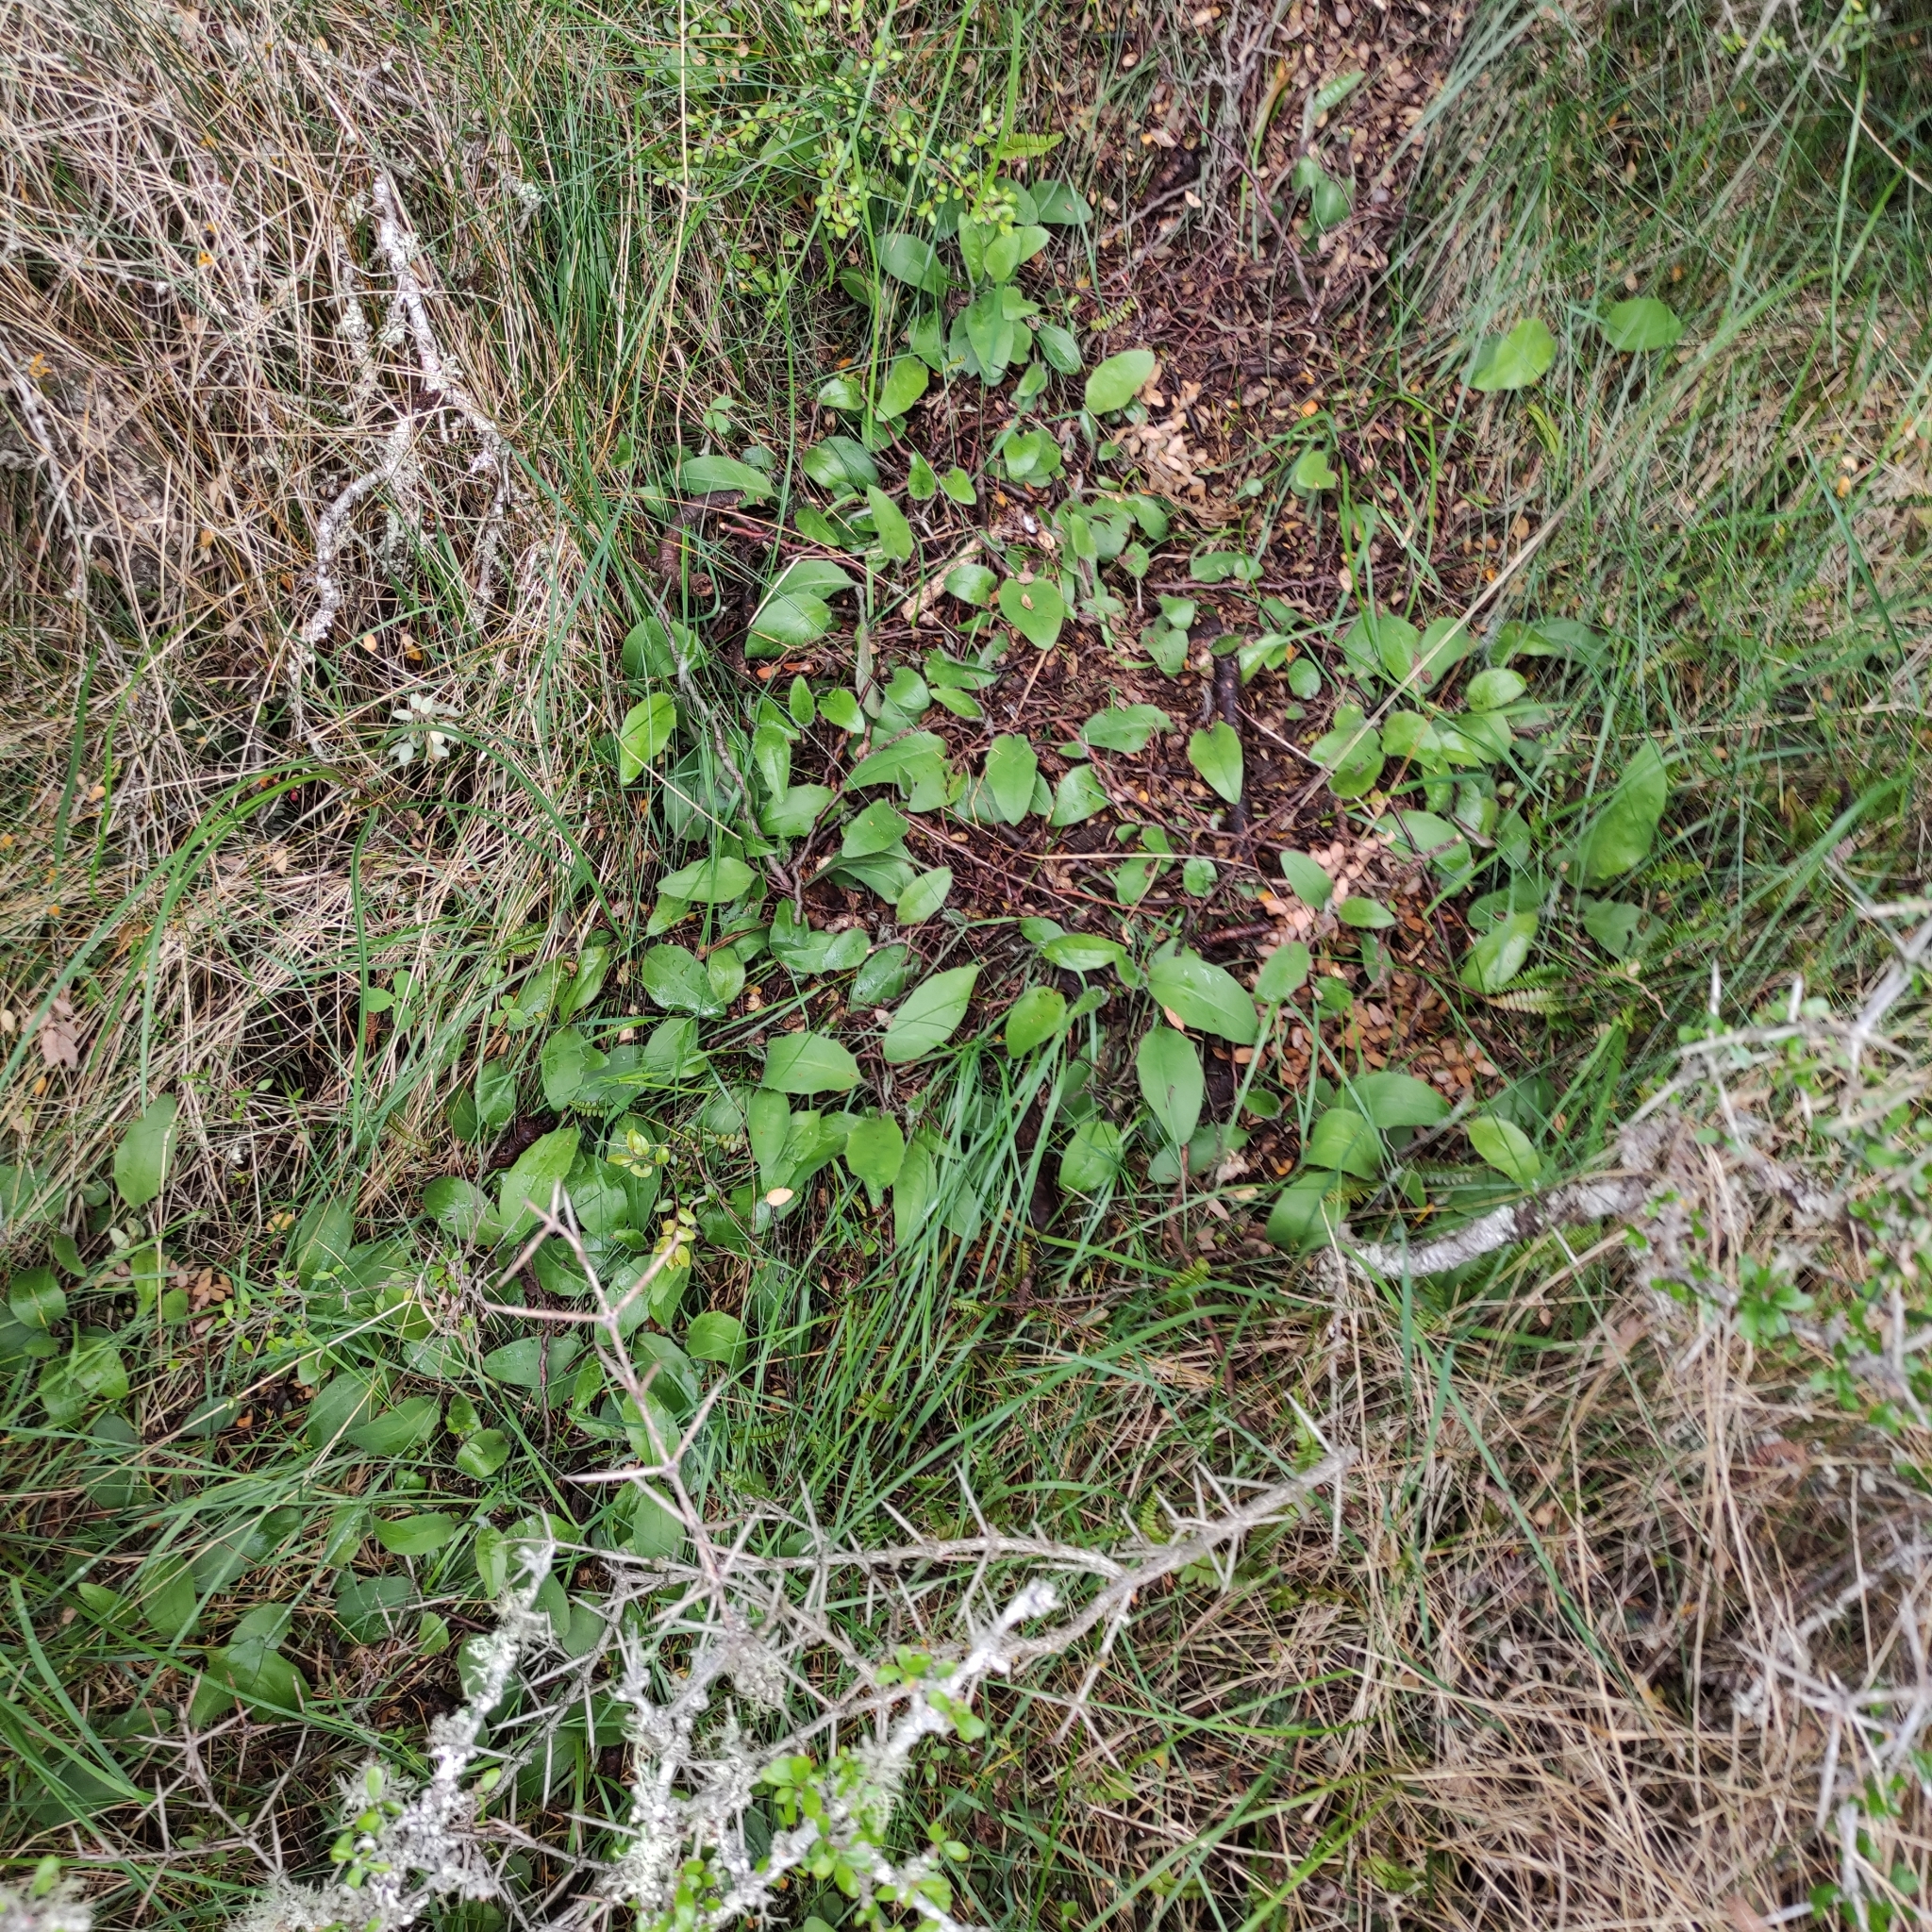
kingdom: Plantae
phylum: Tracheophyta
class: Magnoliopsida
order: Asterales
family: Asteraceae
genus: Hieracium
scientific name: Hieracium lepidulum
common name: Irregular-toothed hawkweed
